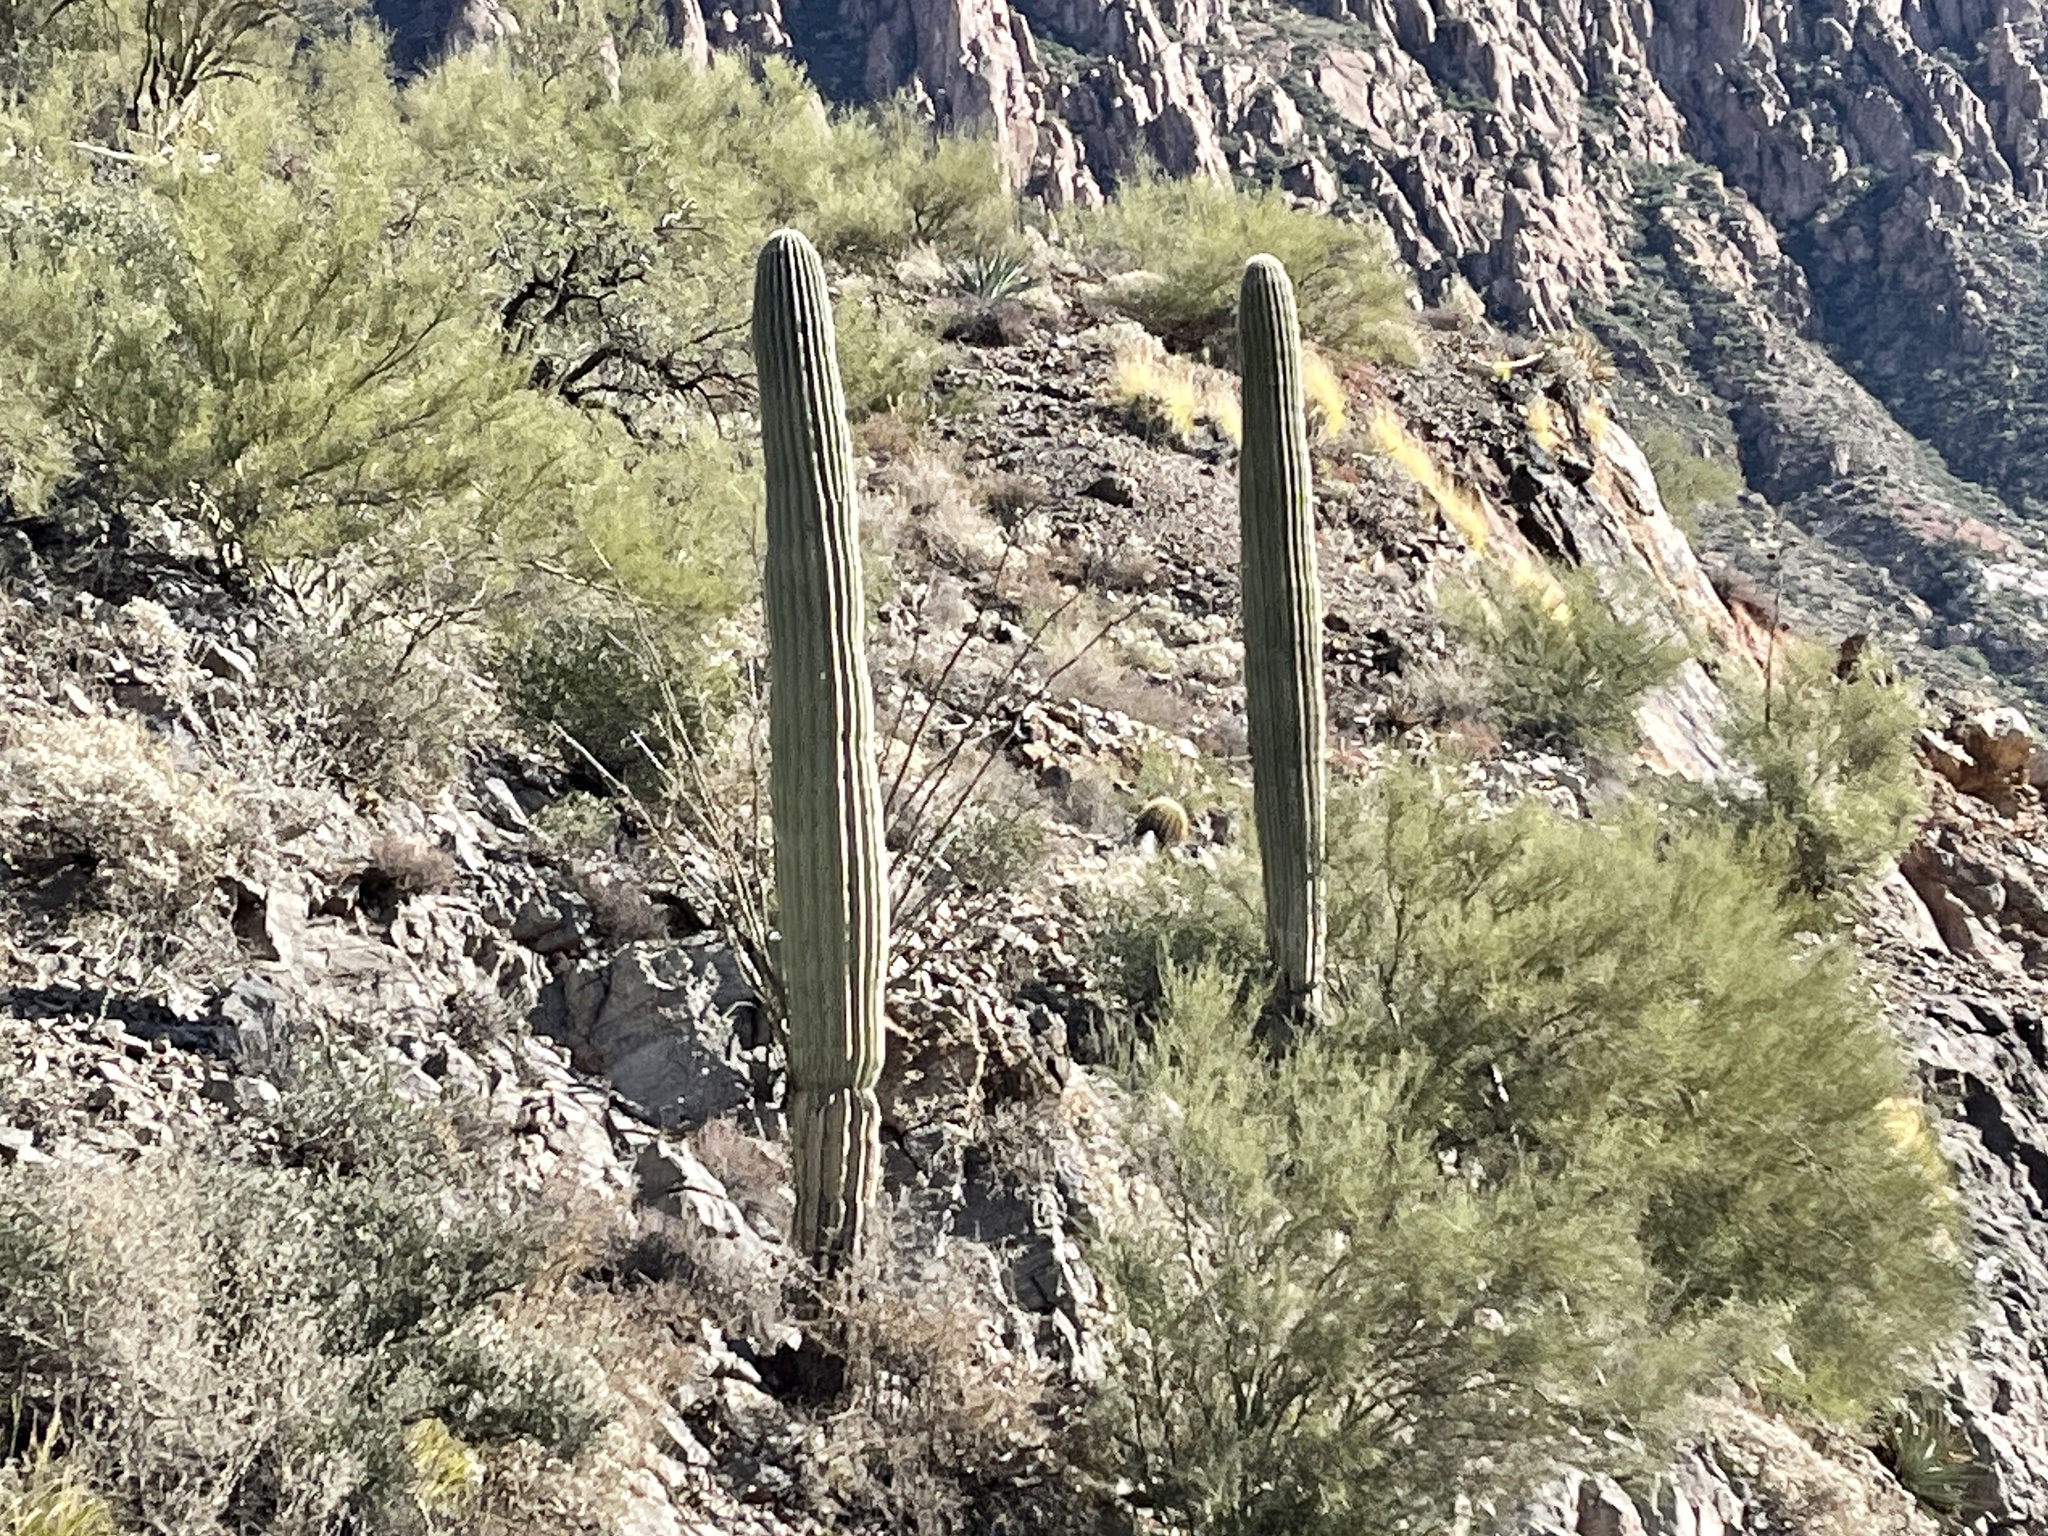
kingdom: Plantae
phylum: Tracheophyta
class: Magnoliopsida
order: Caryophyllales
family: Cactaceae
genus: Carnegiea
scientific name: Carnegiea gigantea
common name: Saguaro
